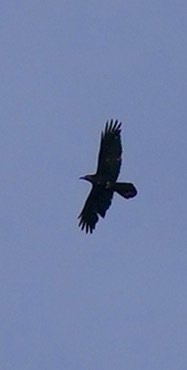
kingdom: Animalia
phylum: Chordata
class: Aves
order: Passeriformes
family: Corvidae
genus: Corvus
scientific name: Corvus corax
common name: Common raven
